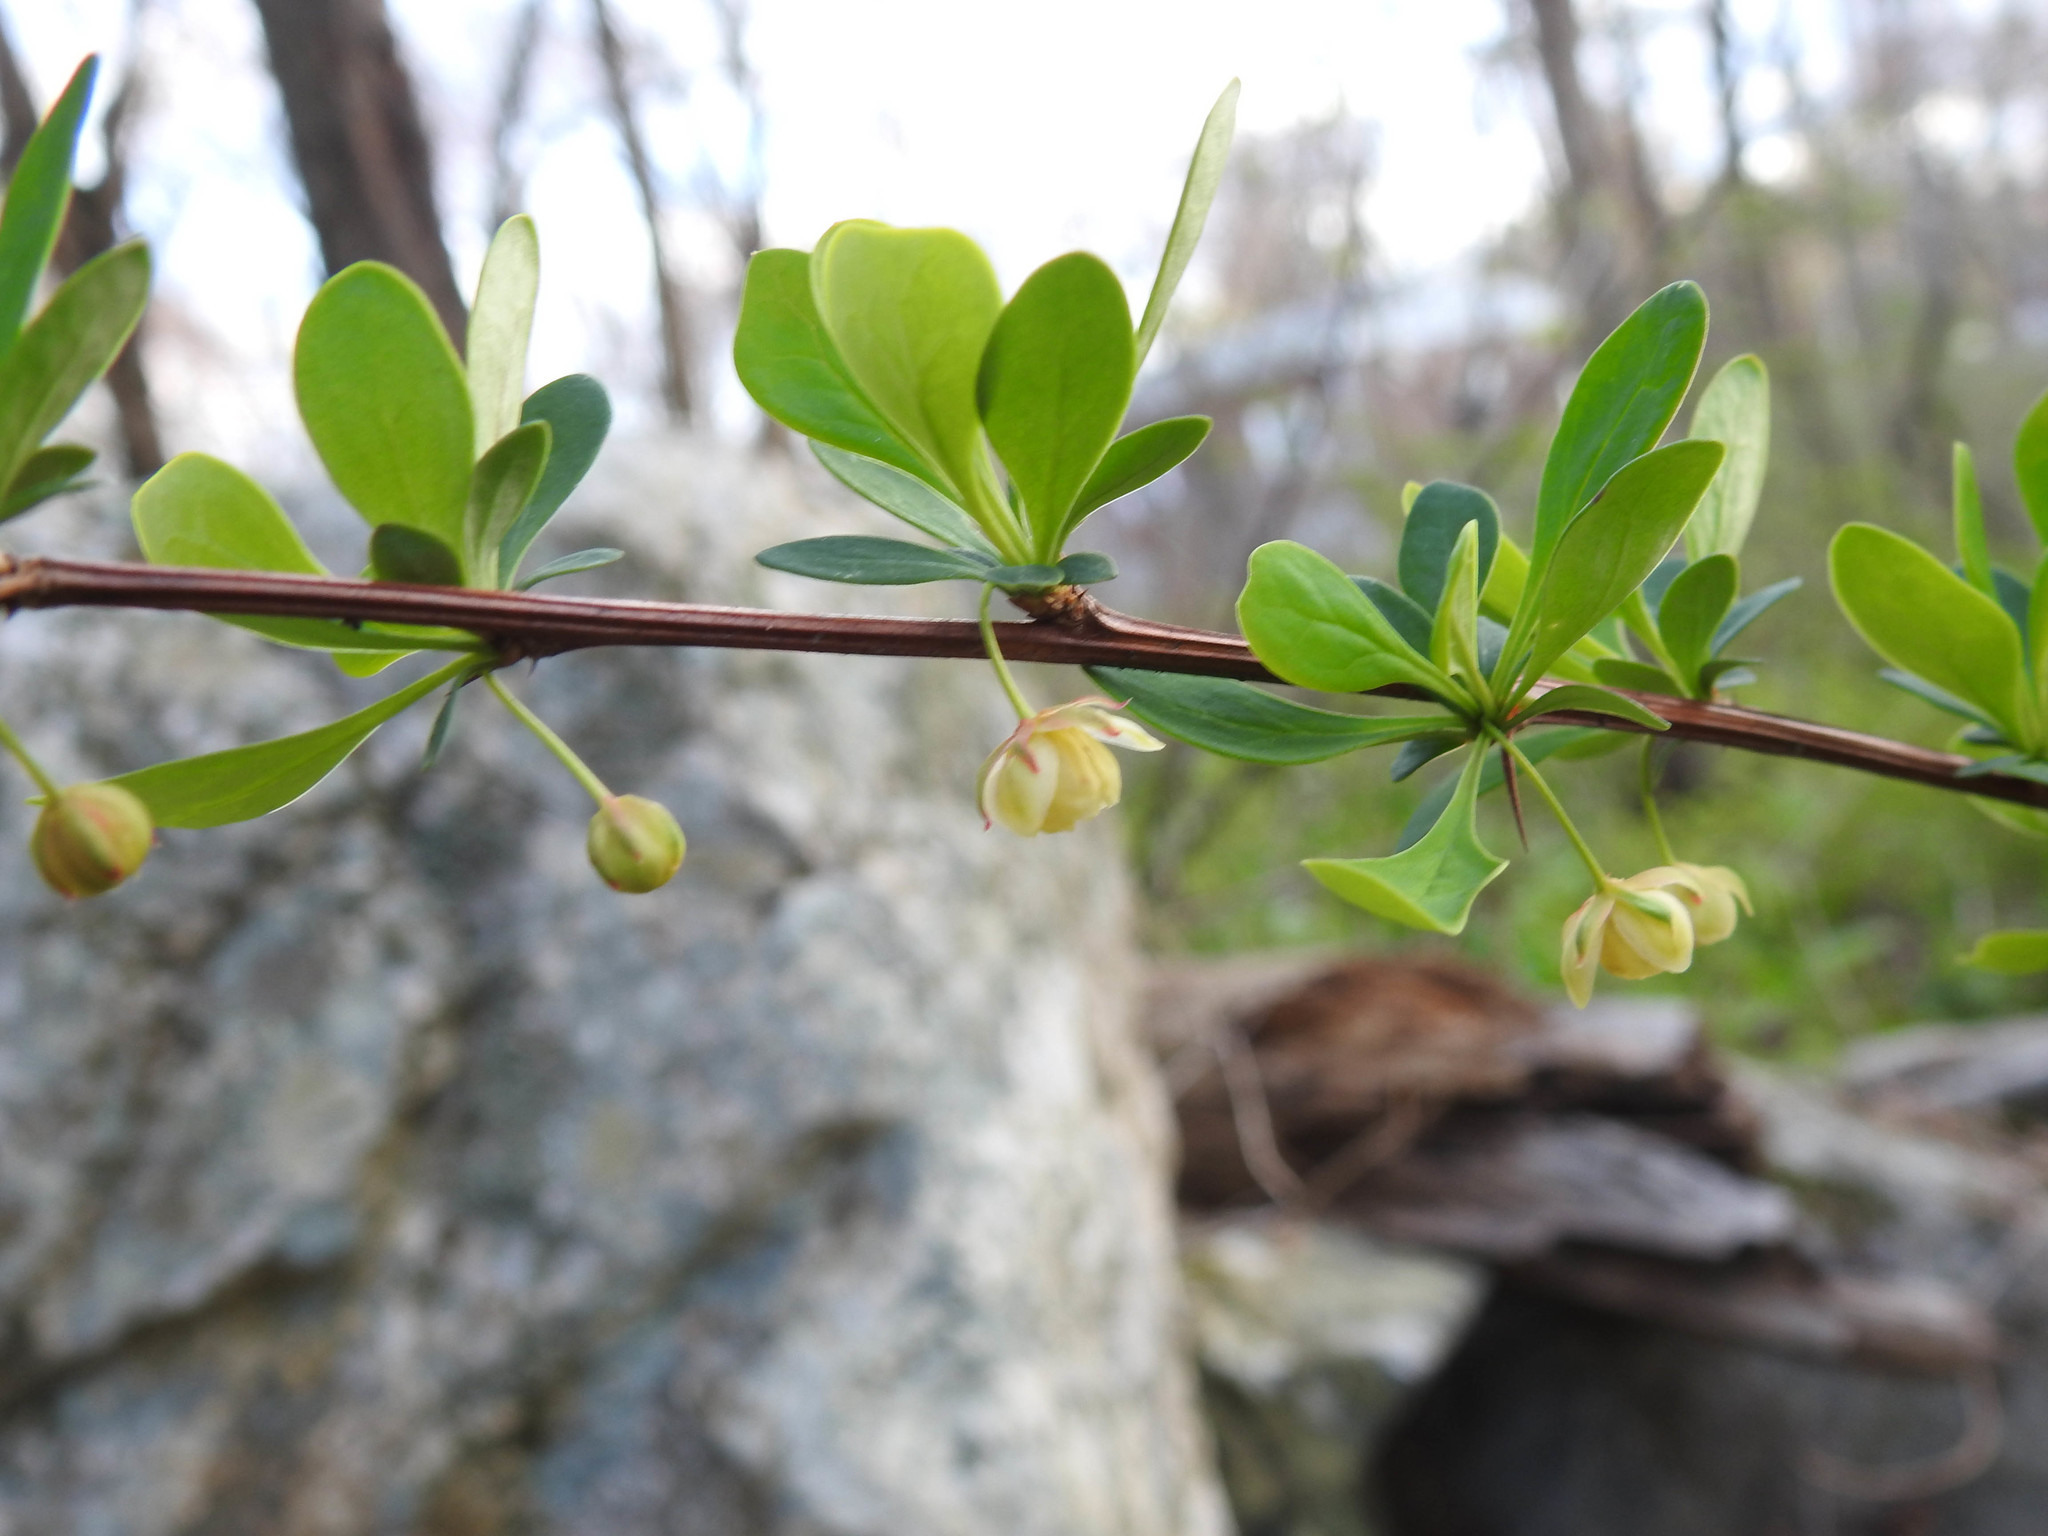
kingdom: Plantae
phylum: Tracheophyta
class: Magnoliopsida
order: Ranunculales
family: Berberidaceae
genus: Berberis
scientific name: Berberis thunbergii
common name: Japanese barberry
